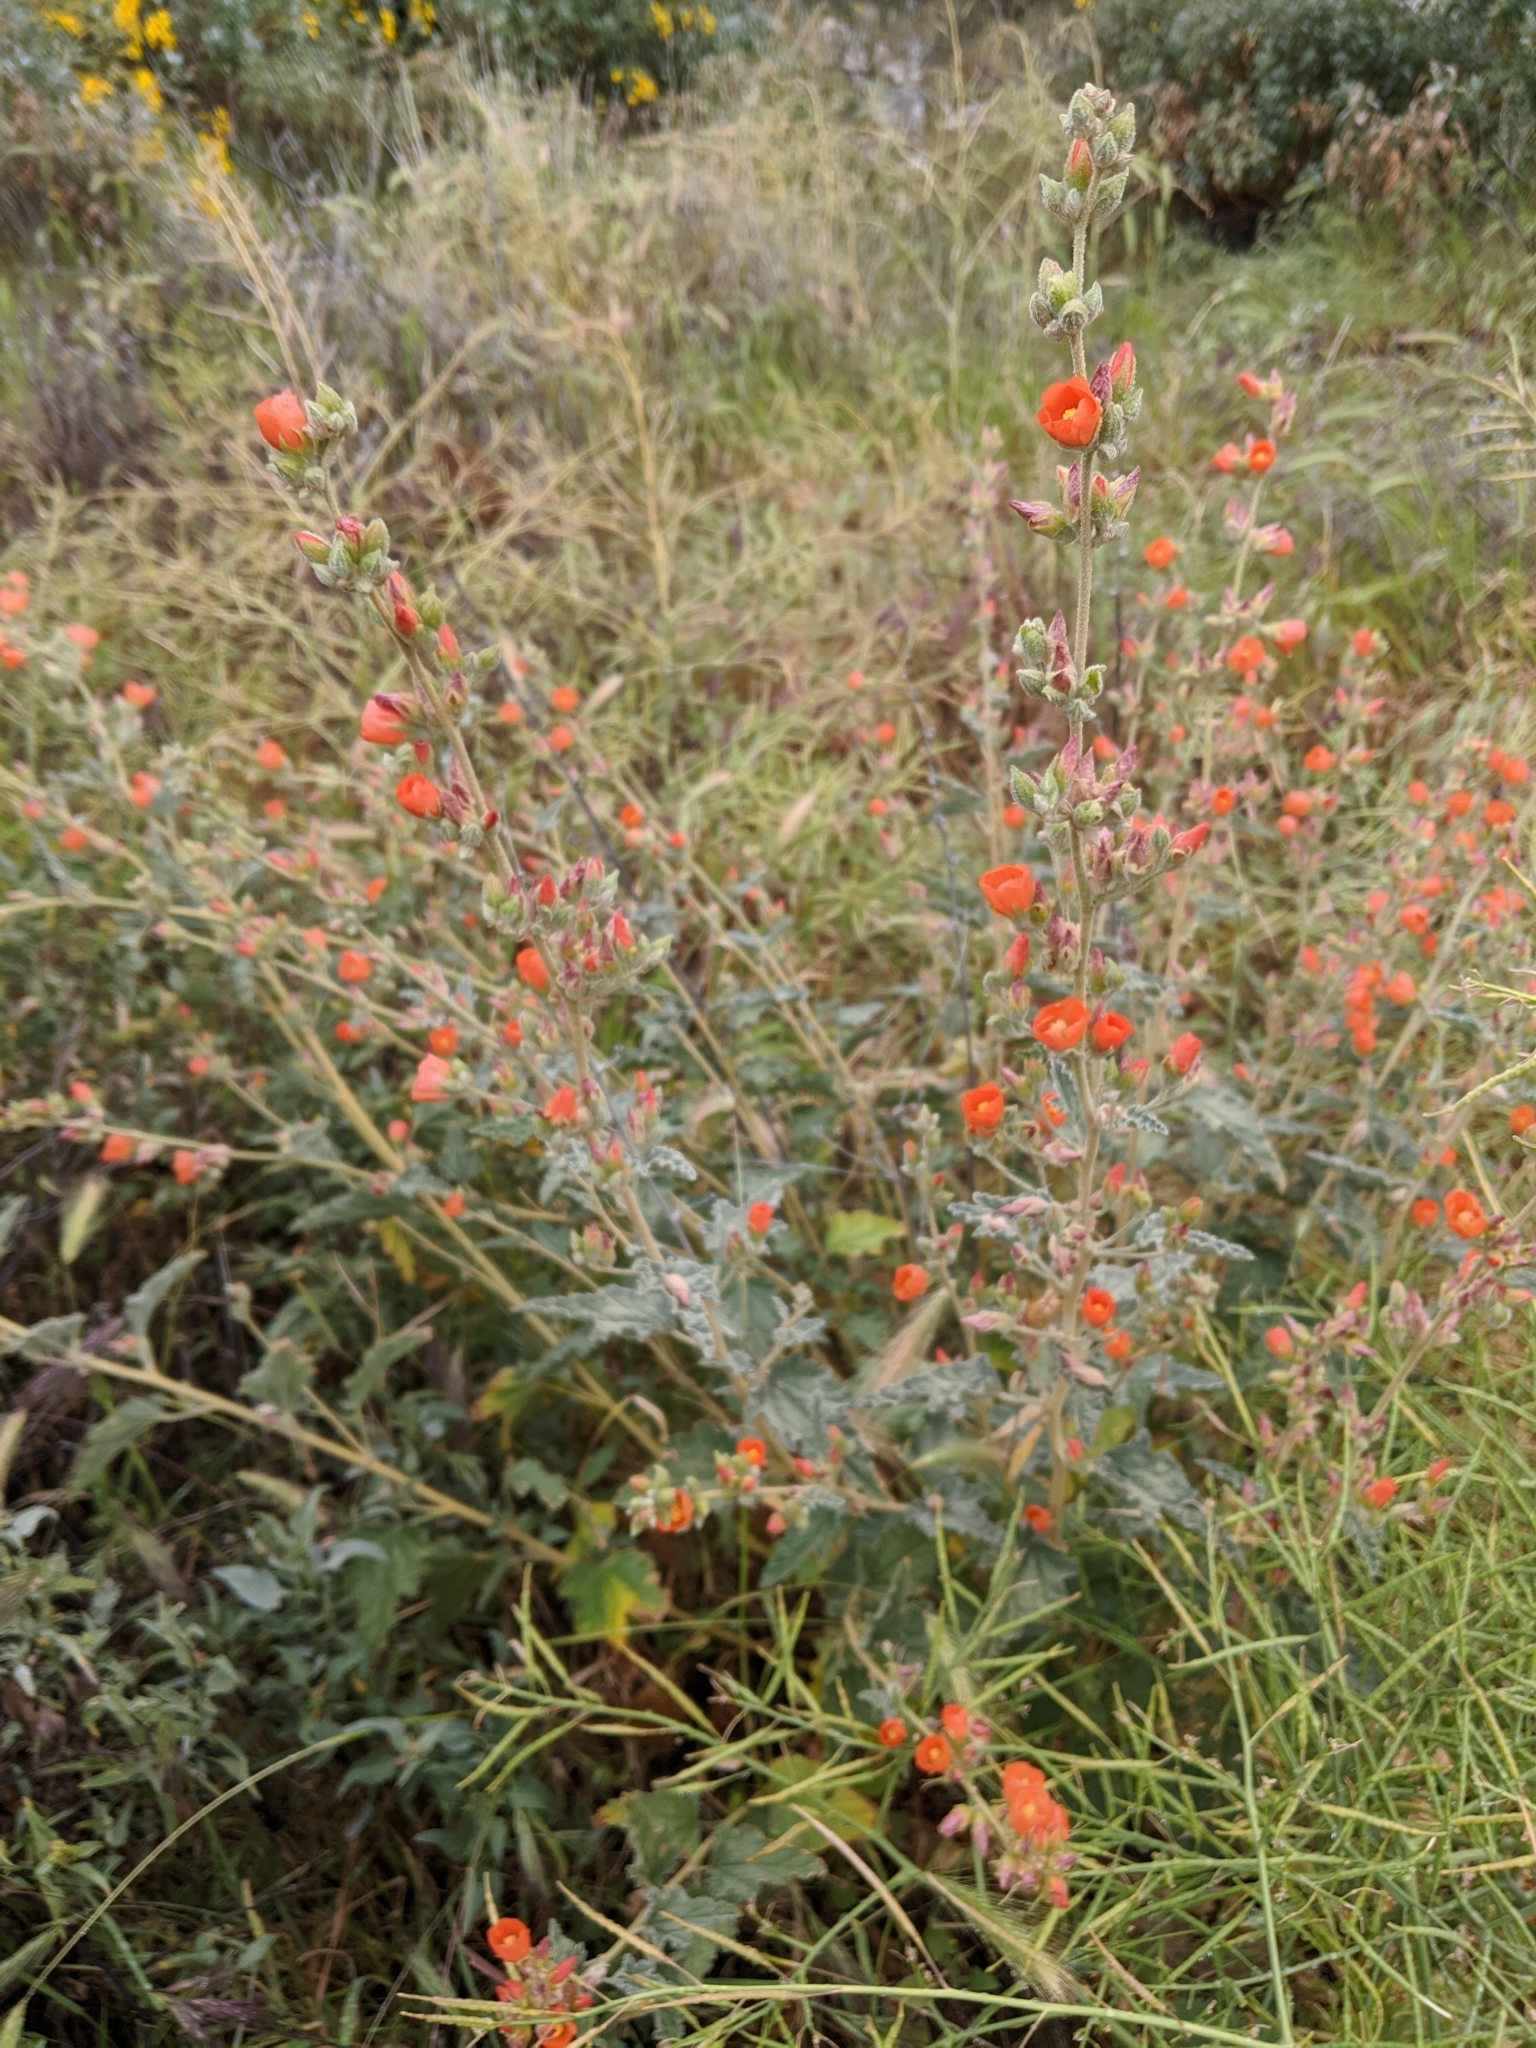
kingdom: Plantae
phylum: Tracheophyta
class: Magnoliopsida
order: Malvales
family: Malvaceae
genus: Sphaeralcea
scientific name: Sphaeralcea ambigua
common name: Apricot globe-mallow
